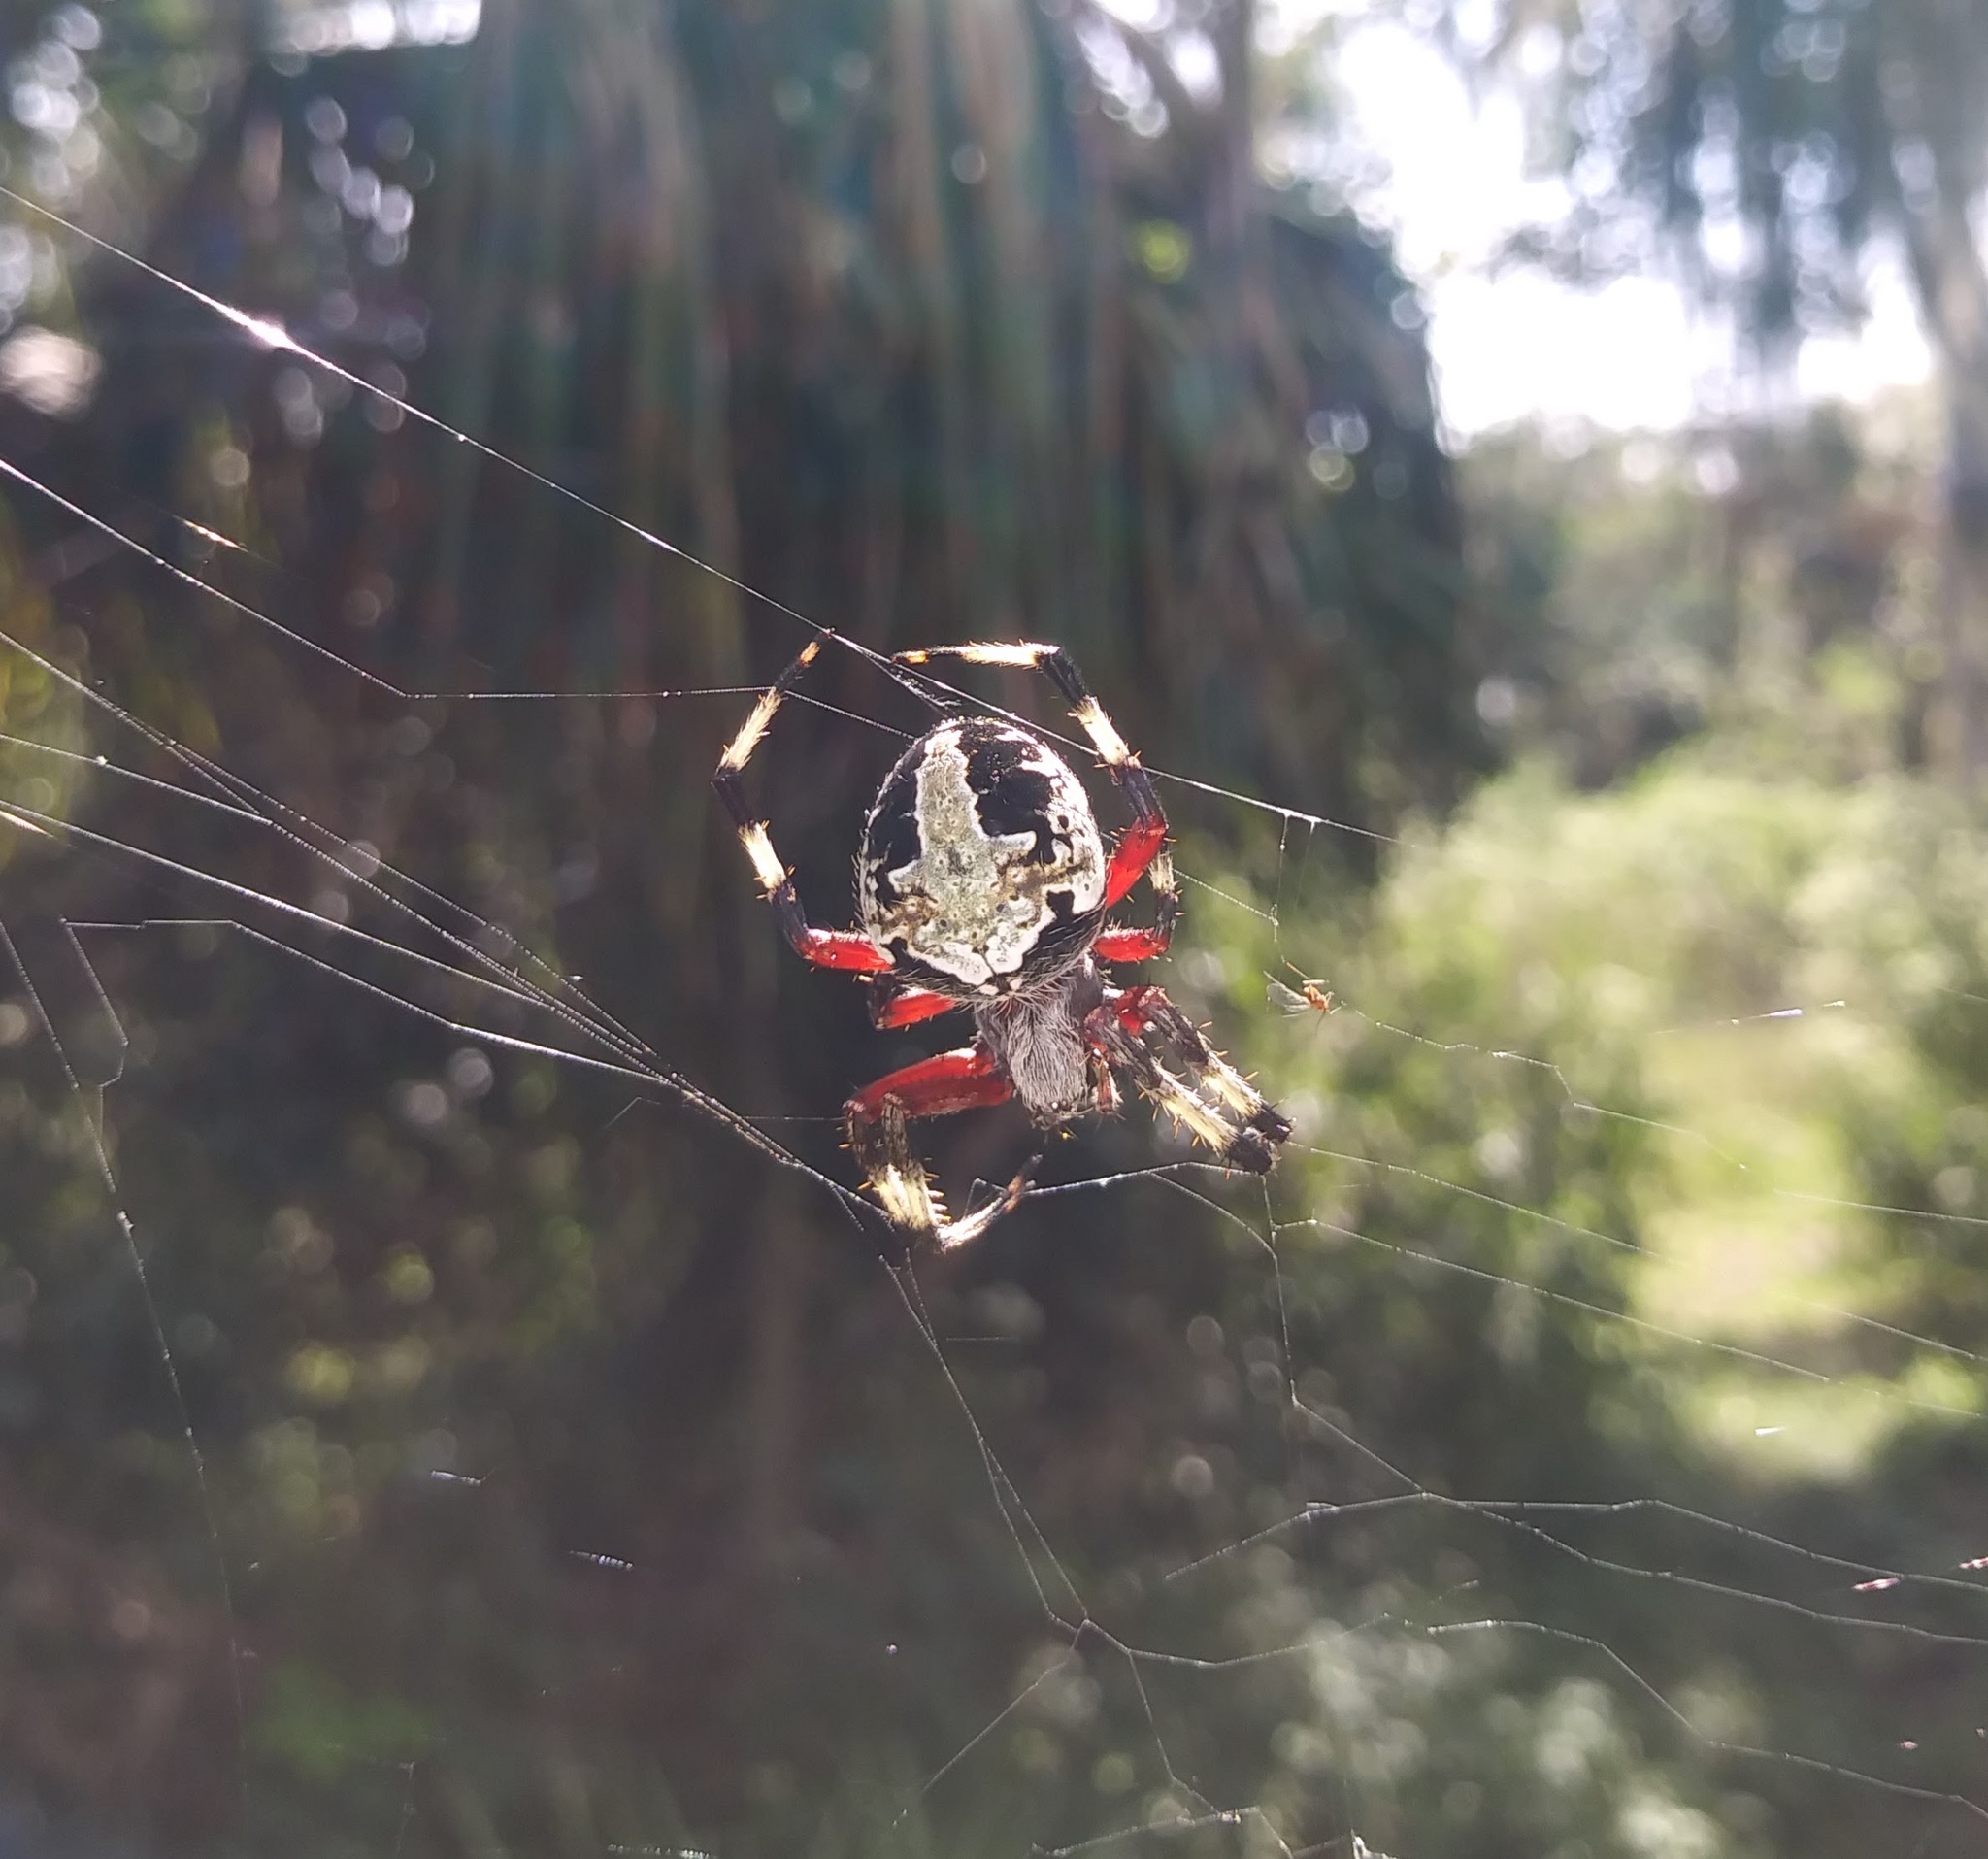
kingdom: Animalia
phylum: Arthropoda
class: Arachnida
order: Araneae
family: Araneidae
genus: Neoscona
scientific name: Neoscona domiciliorum
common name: Red-femured spotted orbweaver
